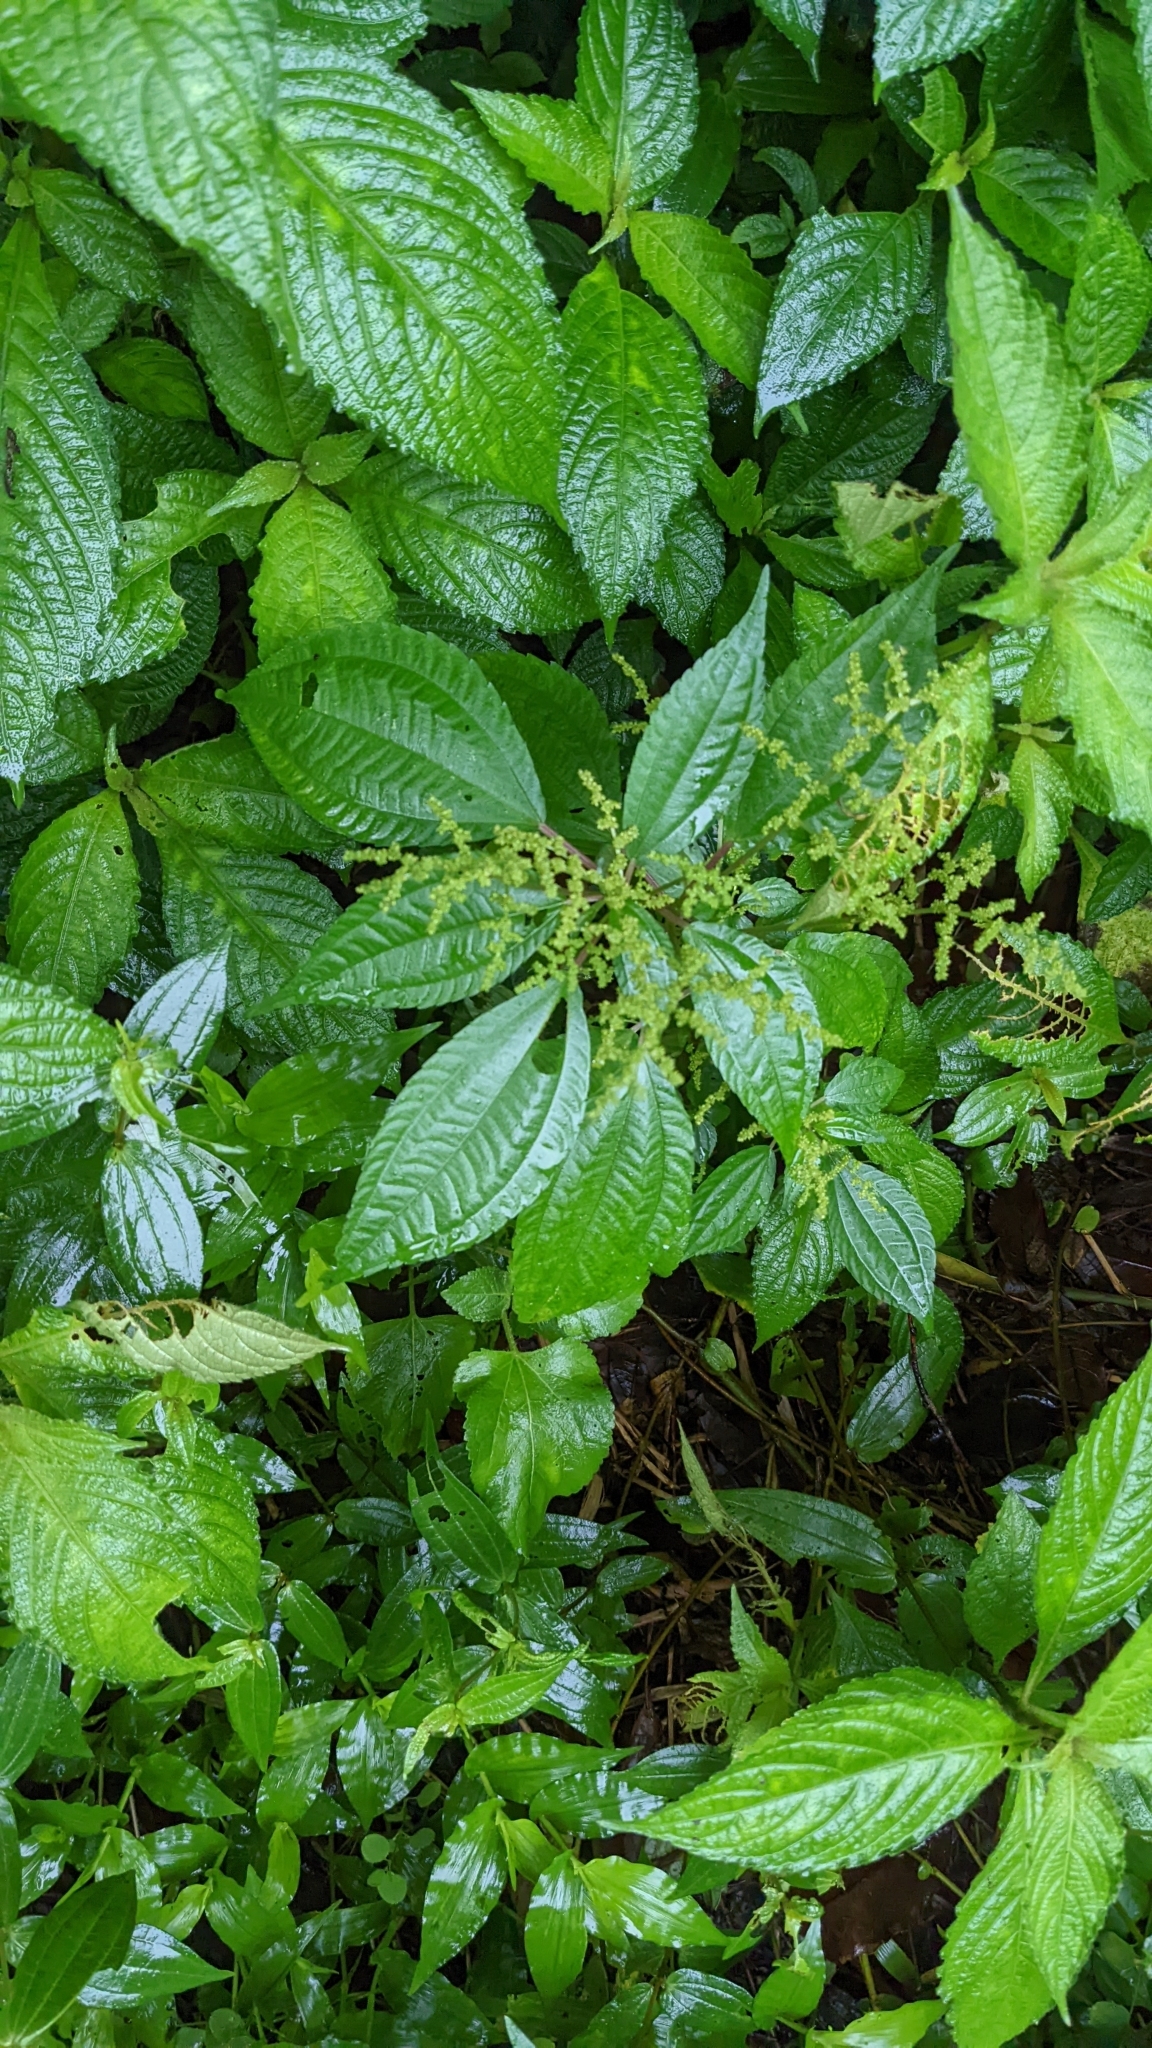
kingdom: Plantae
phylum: Tracheophyta
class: Magnoliopsida
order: Rosales
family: Urticaceae
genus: Pilea
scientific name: Pilea melastomoides
